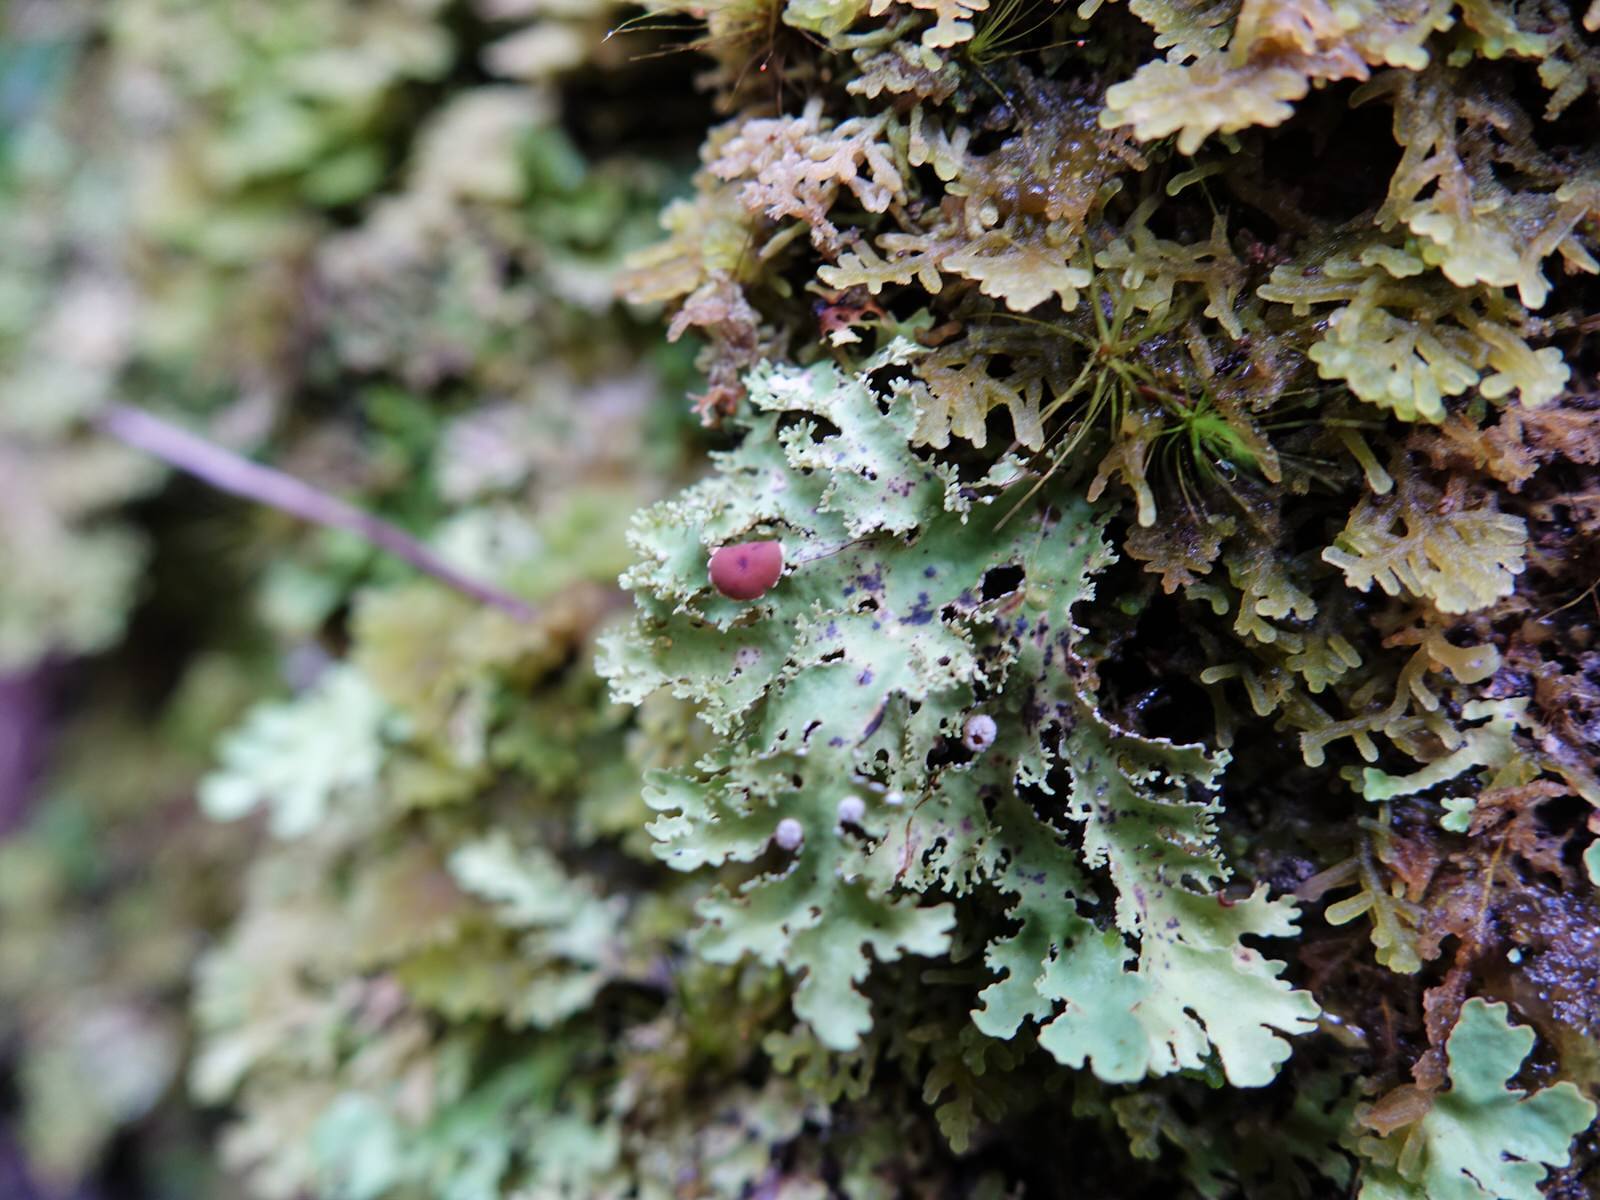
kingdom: Fungi
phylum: Ascomycota
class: Lecanoromycetes
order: Peltigerales
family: Lobariaceae
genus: Pseudocyphellaria
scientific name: Pseudocyphellaria glabra
